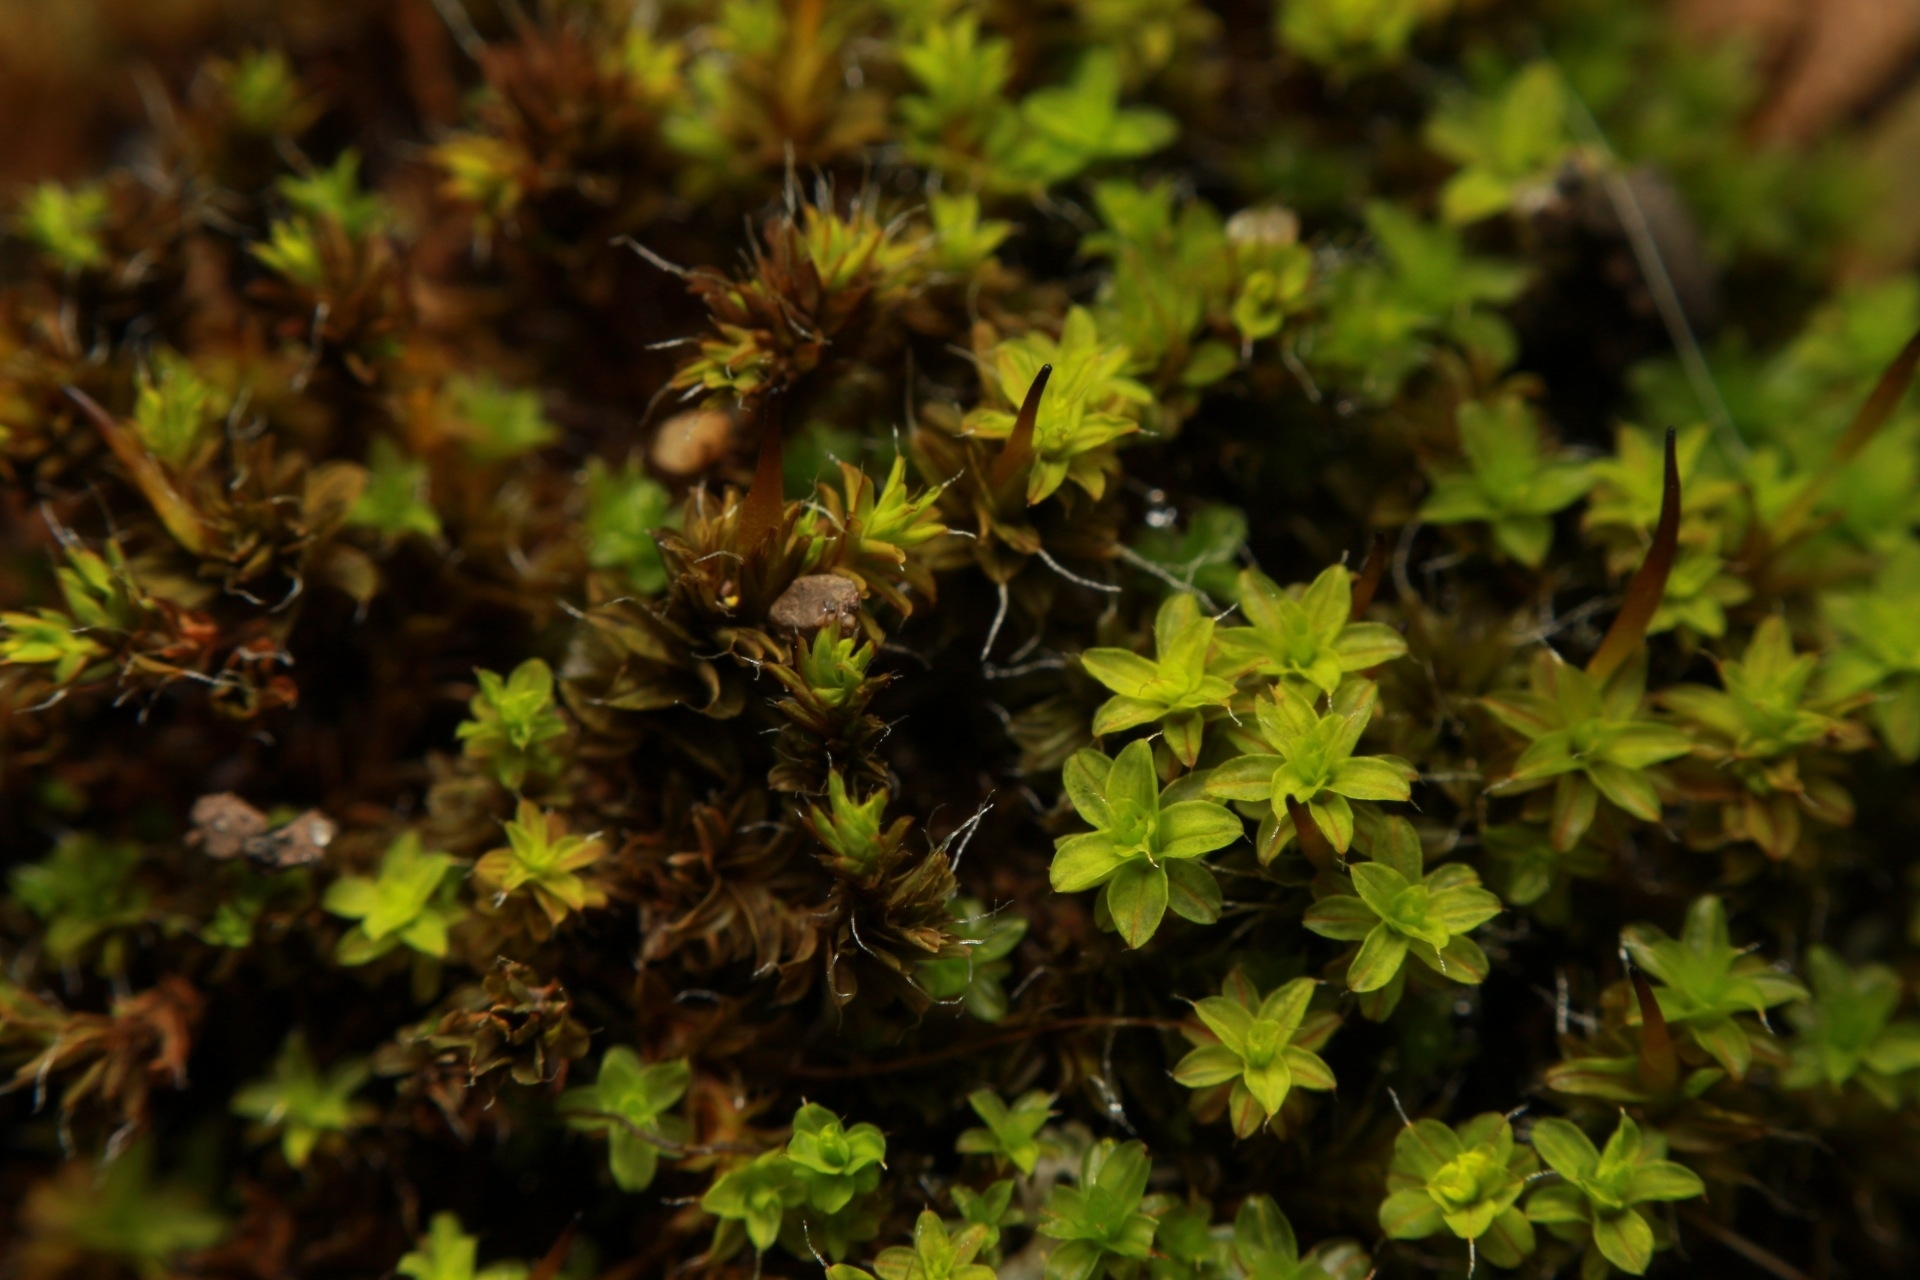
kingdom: Plantae
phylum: Bryophyta
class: Bryopsida
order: Pottiales
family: Pottiaceae
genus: Syntrichia
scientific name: Syntrichia ruralis
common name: Sidewalk screw moss
